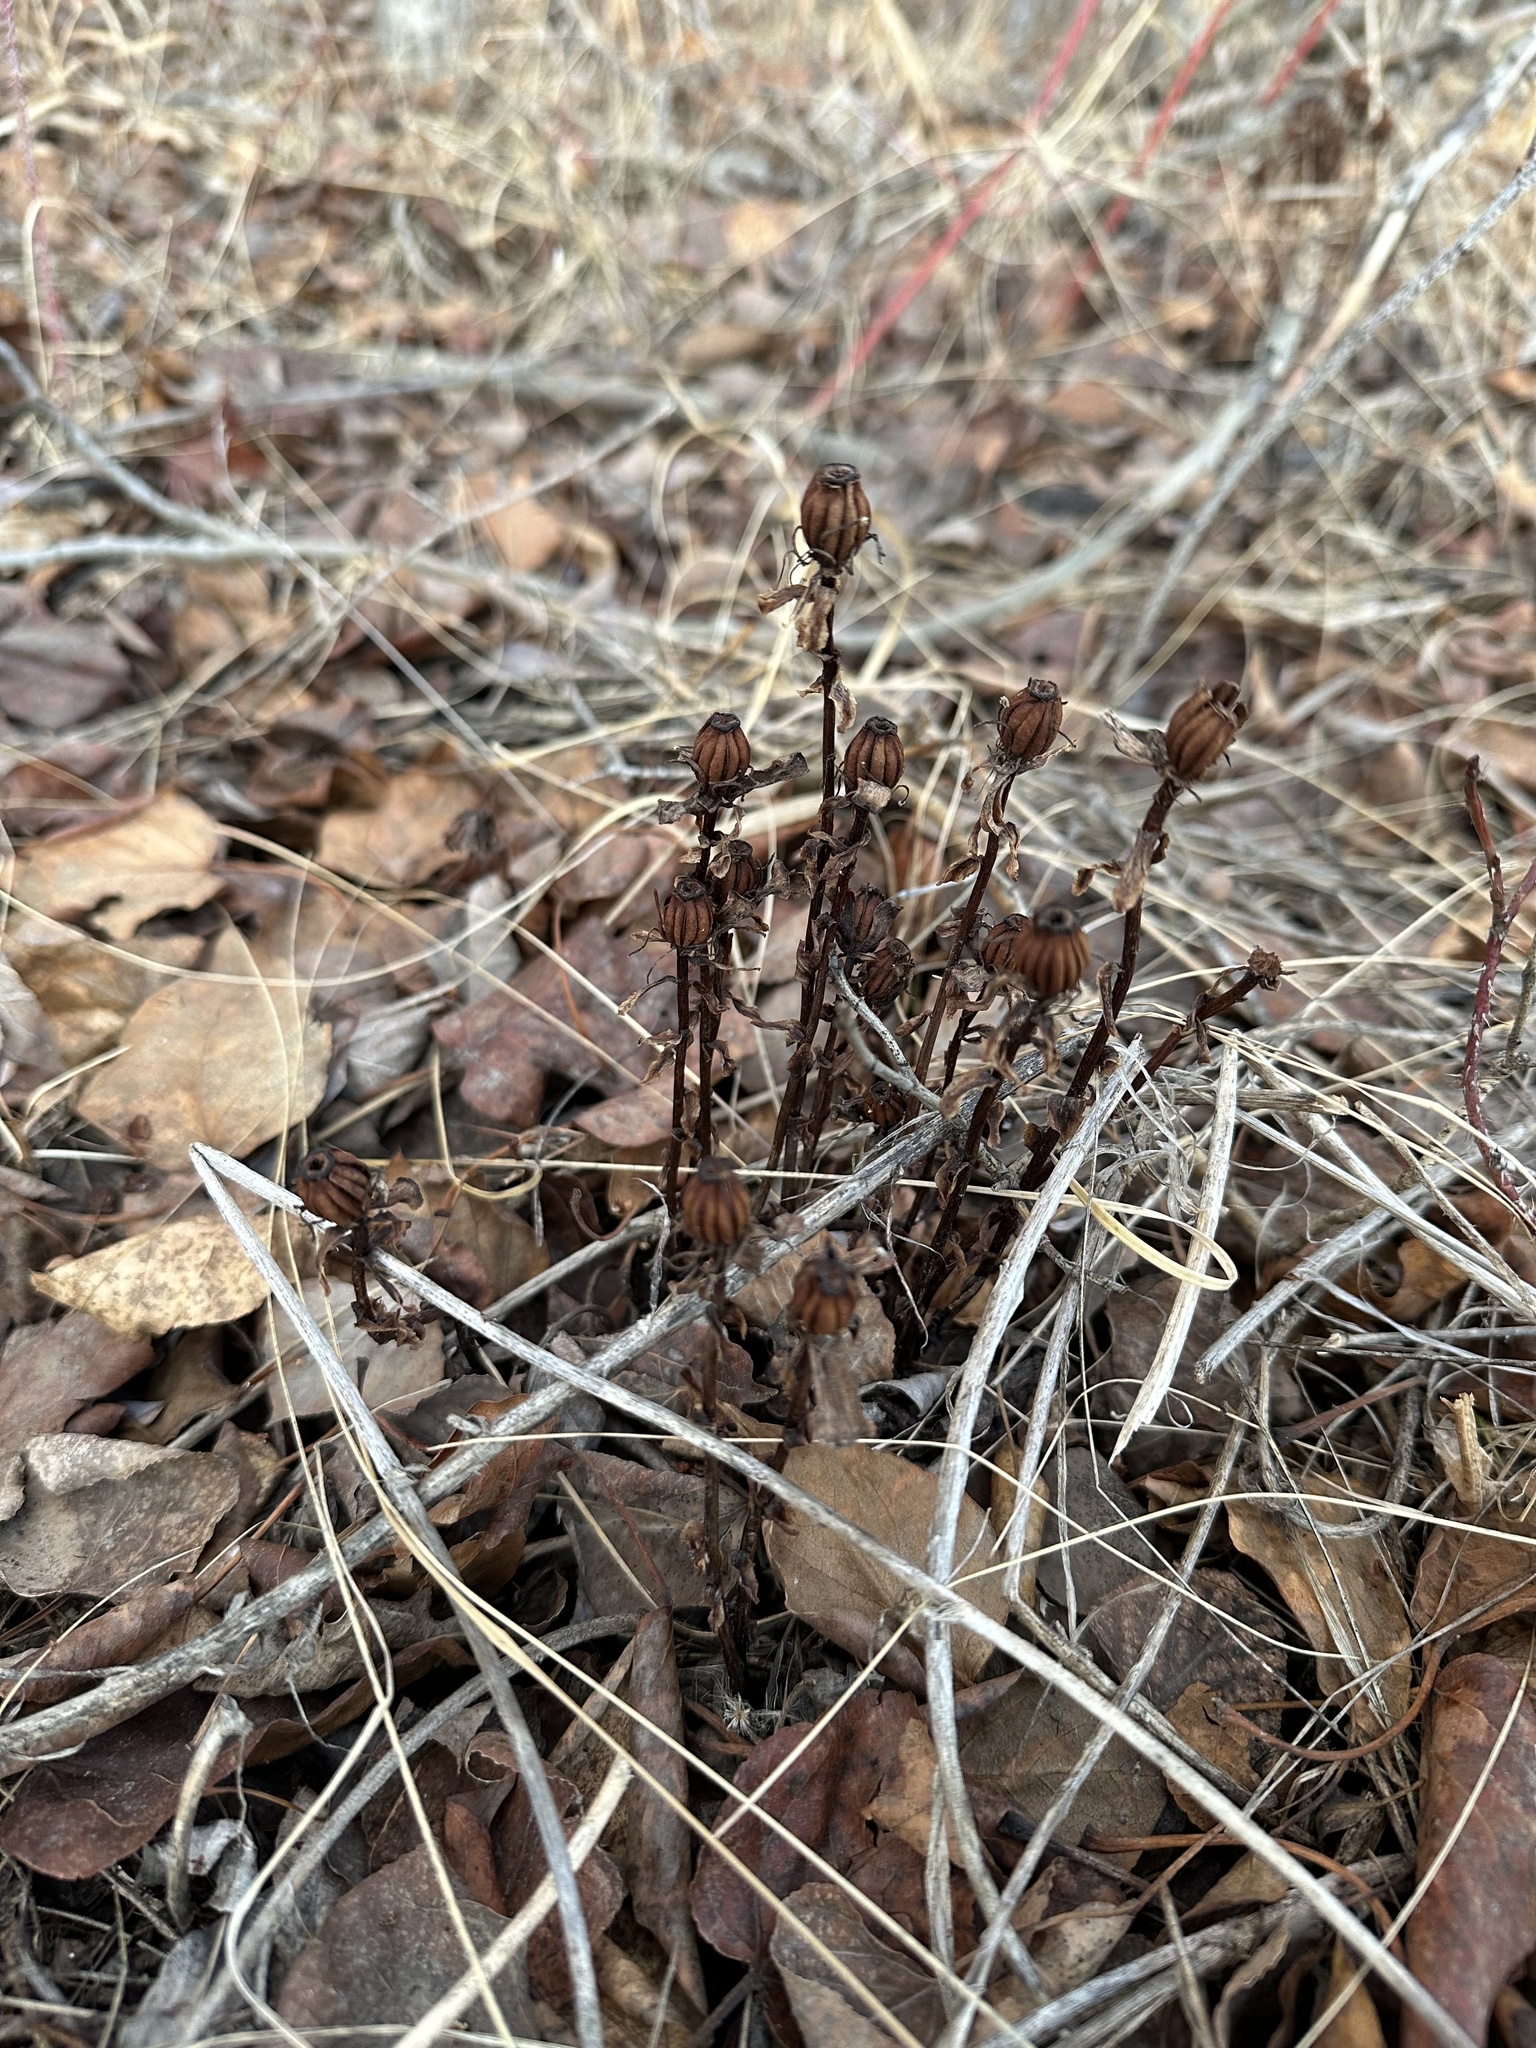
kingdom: Plantae
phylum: Tracheophyta
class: Magnoliopsida
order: Ericales
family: Ericaceae
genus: Monotropa
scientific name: Monotropa uniflora
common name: Convulsion root
